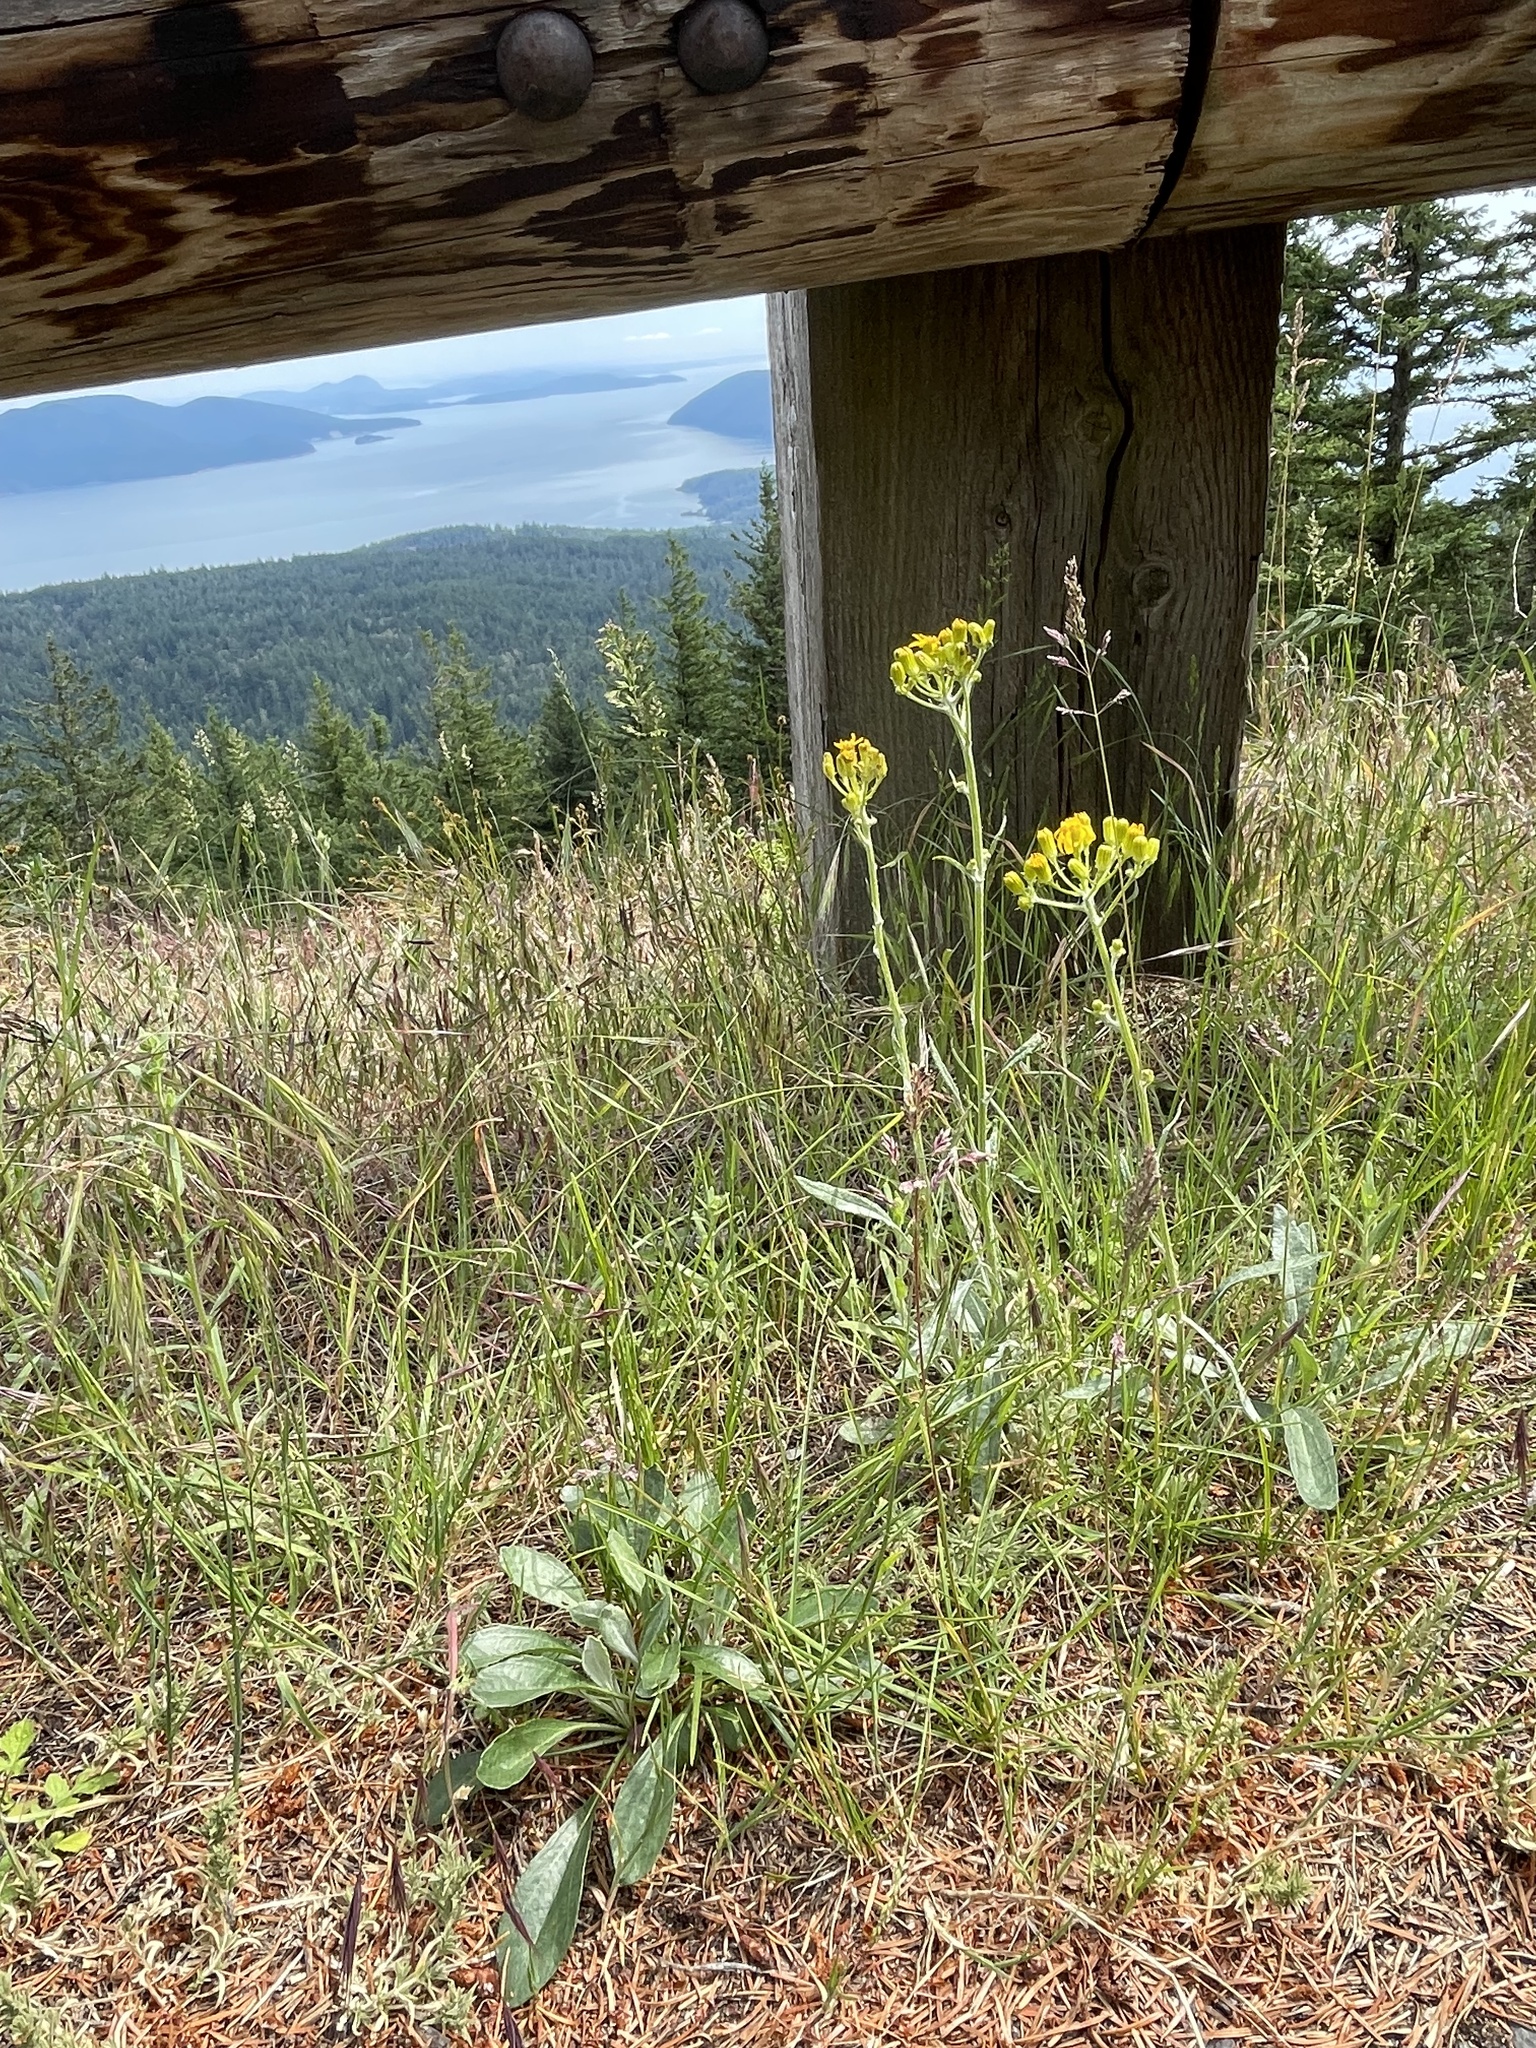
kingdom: Plantae
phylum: Tracheophyta
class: Magnoliopsida
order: Asterales
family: Asteraceae
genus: Packera
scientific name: Packera macounii
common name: Macoun's groundsel
